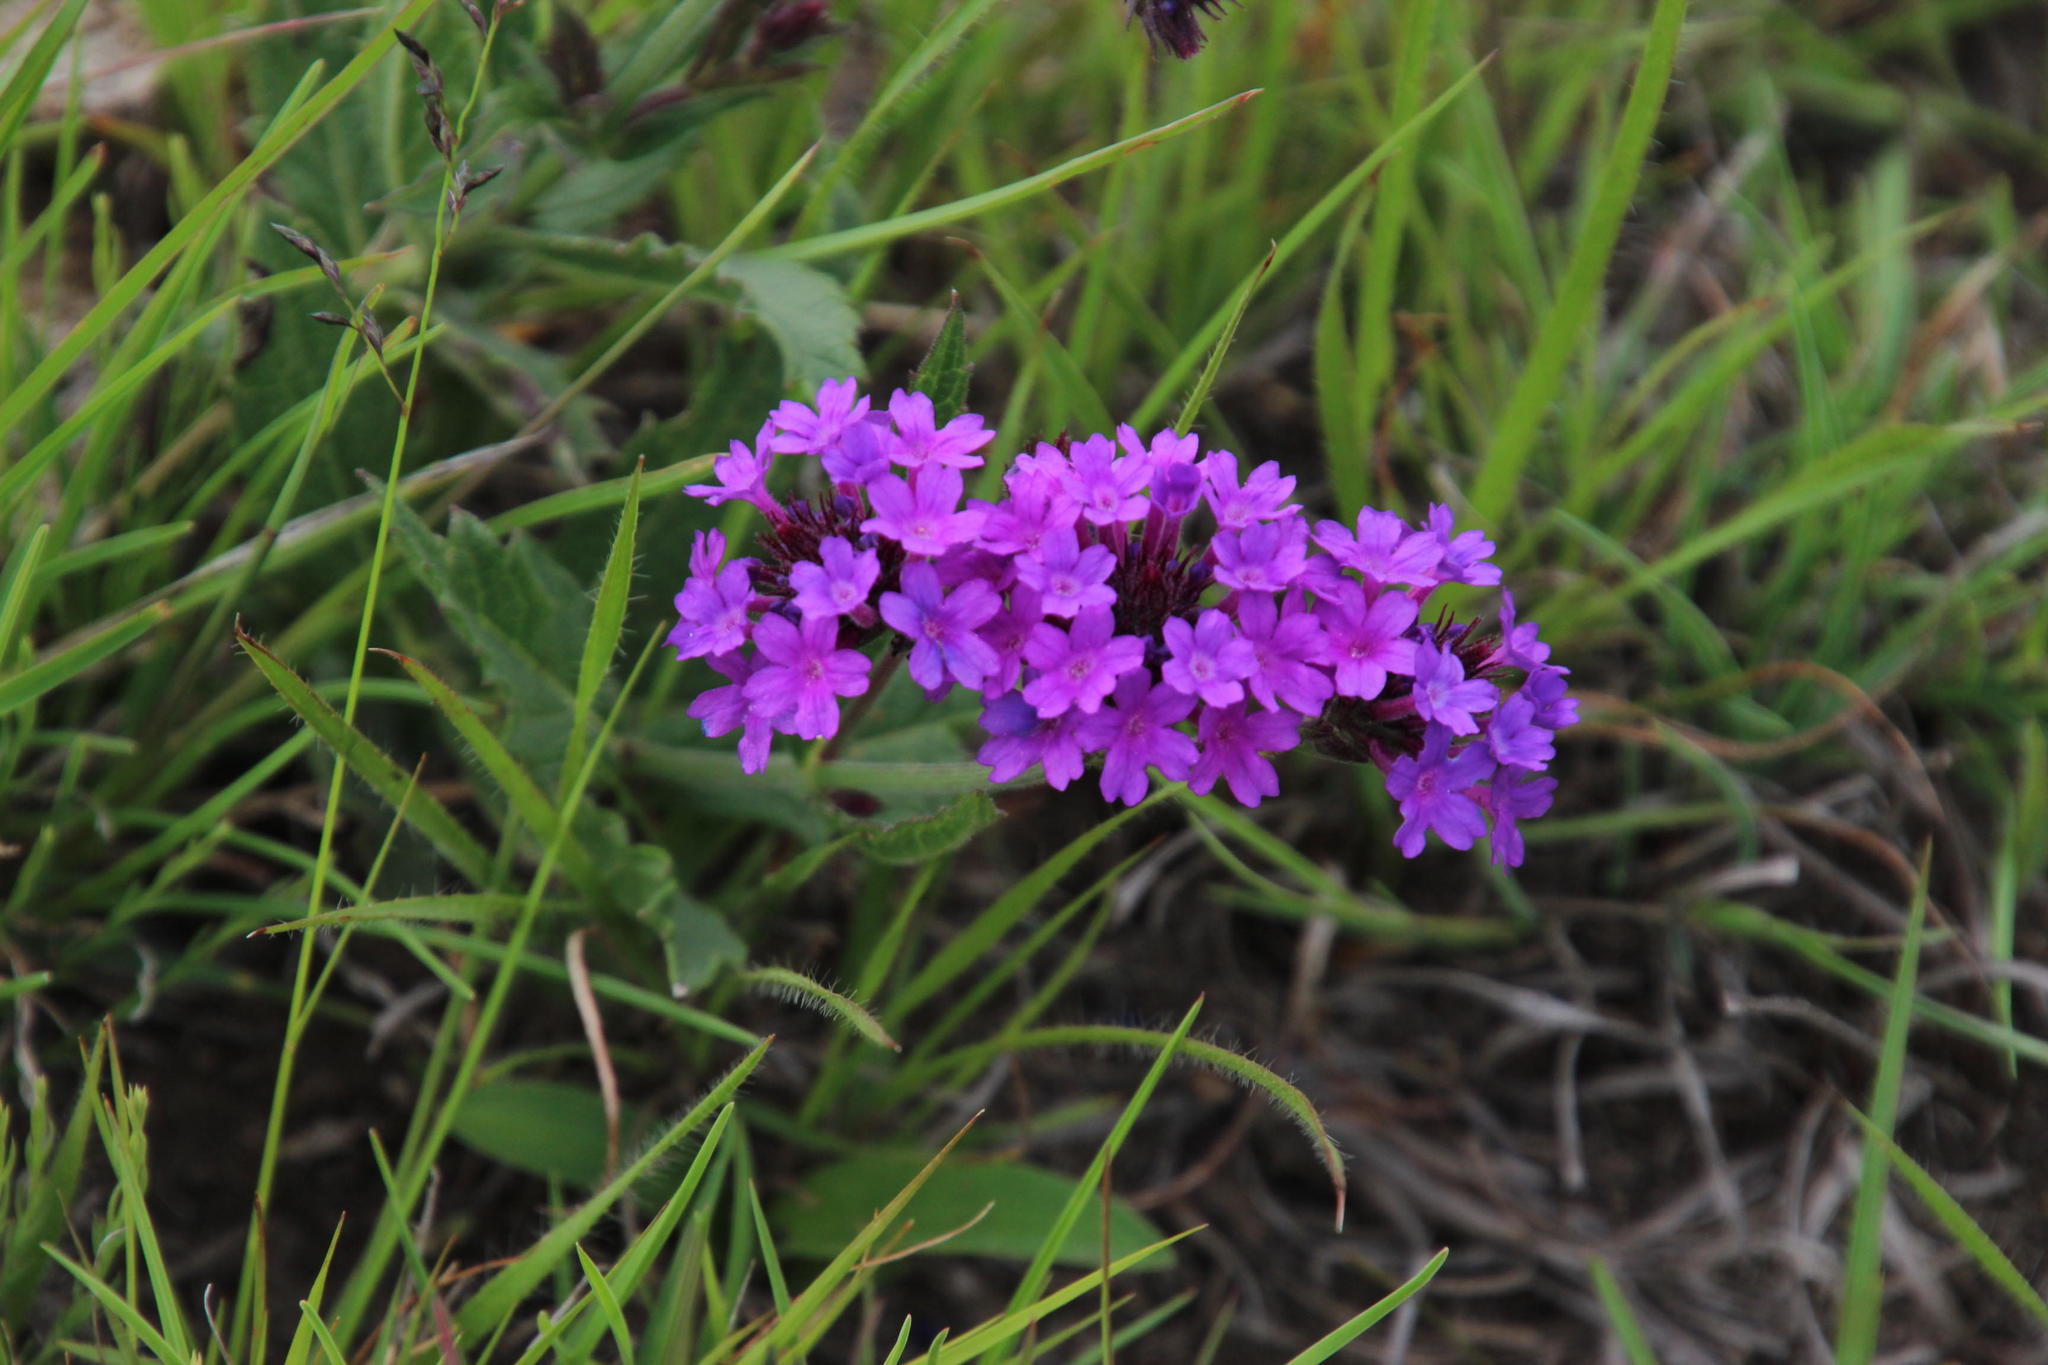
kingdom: Plantae
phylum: Tracheophyta
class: Magnoliopsida
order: Lamiales
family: Verbenaceae
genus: Verbena
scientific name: Verbena rigida
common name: Slender vervain
